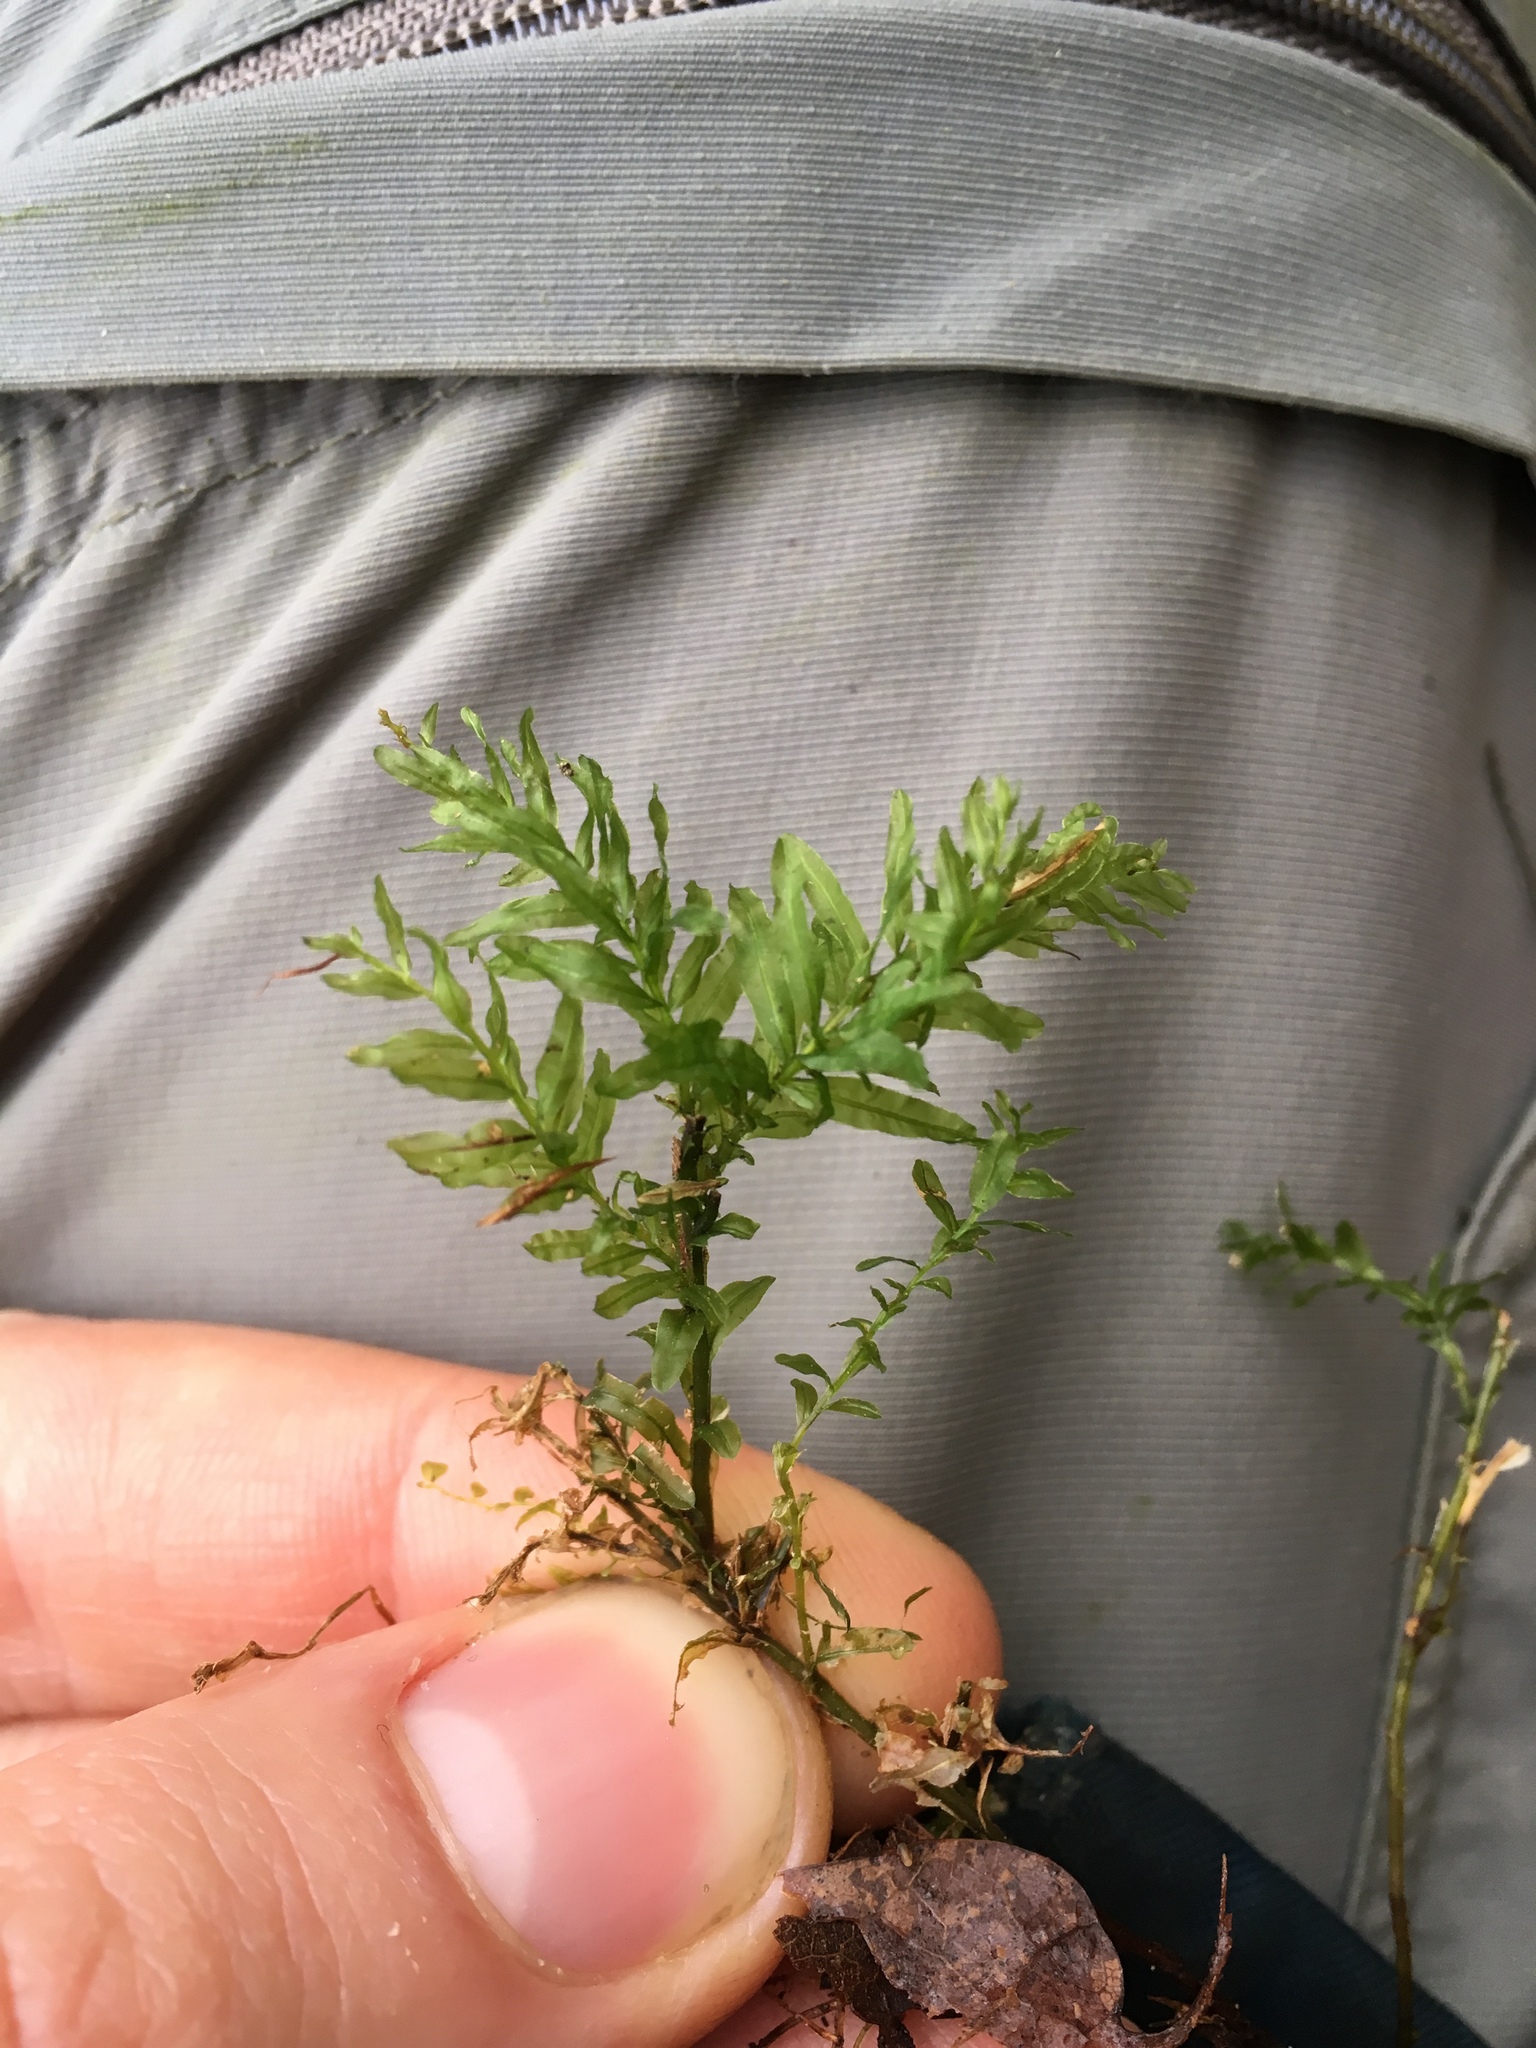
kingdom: Plantae
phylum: Bryophyta
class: Bryopsida
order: Bryales
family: Mniaceae
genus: Plagiomnium
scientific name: Plagiomnium undulatum
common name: Hart's-tongue thyme-moss
